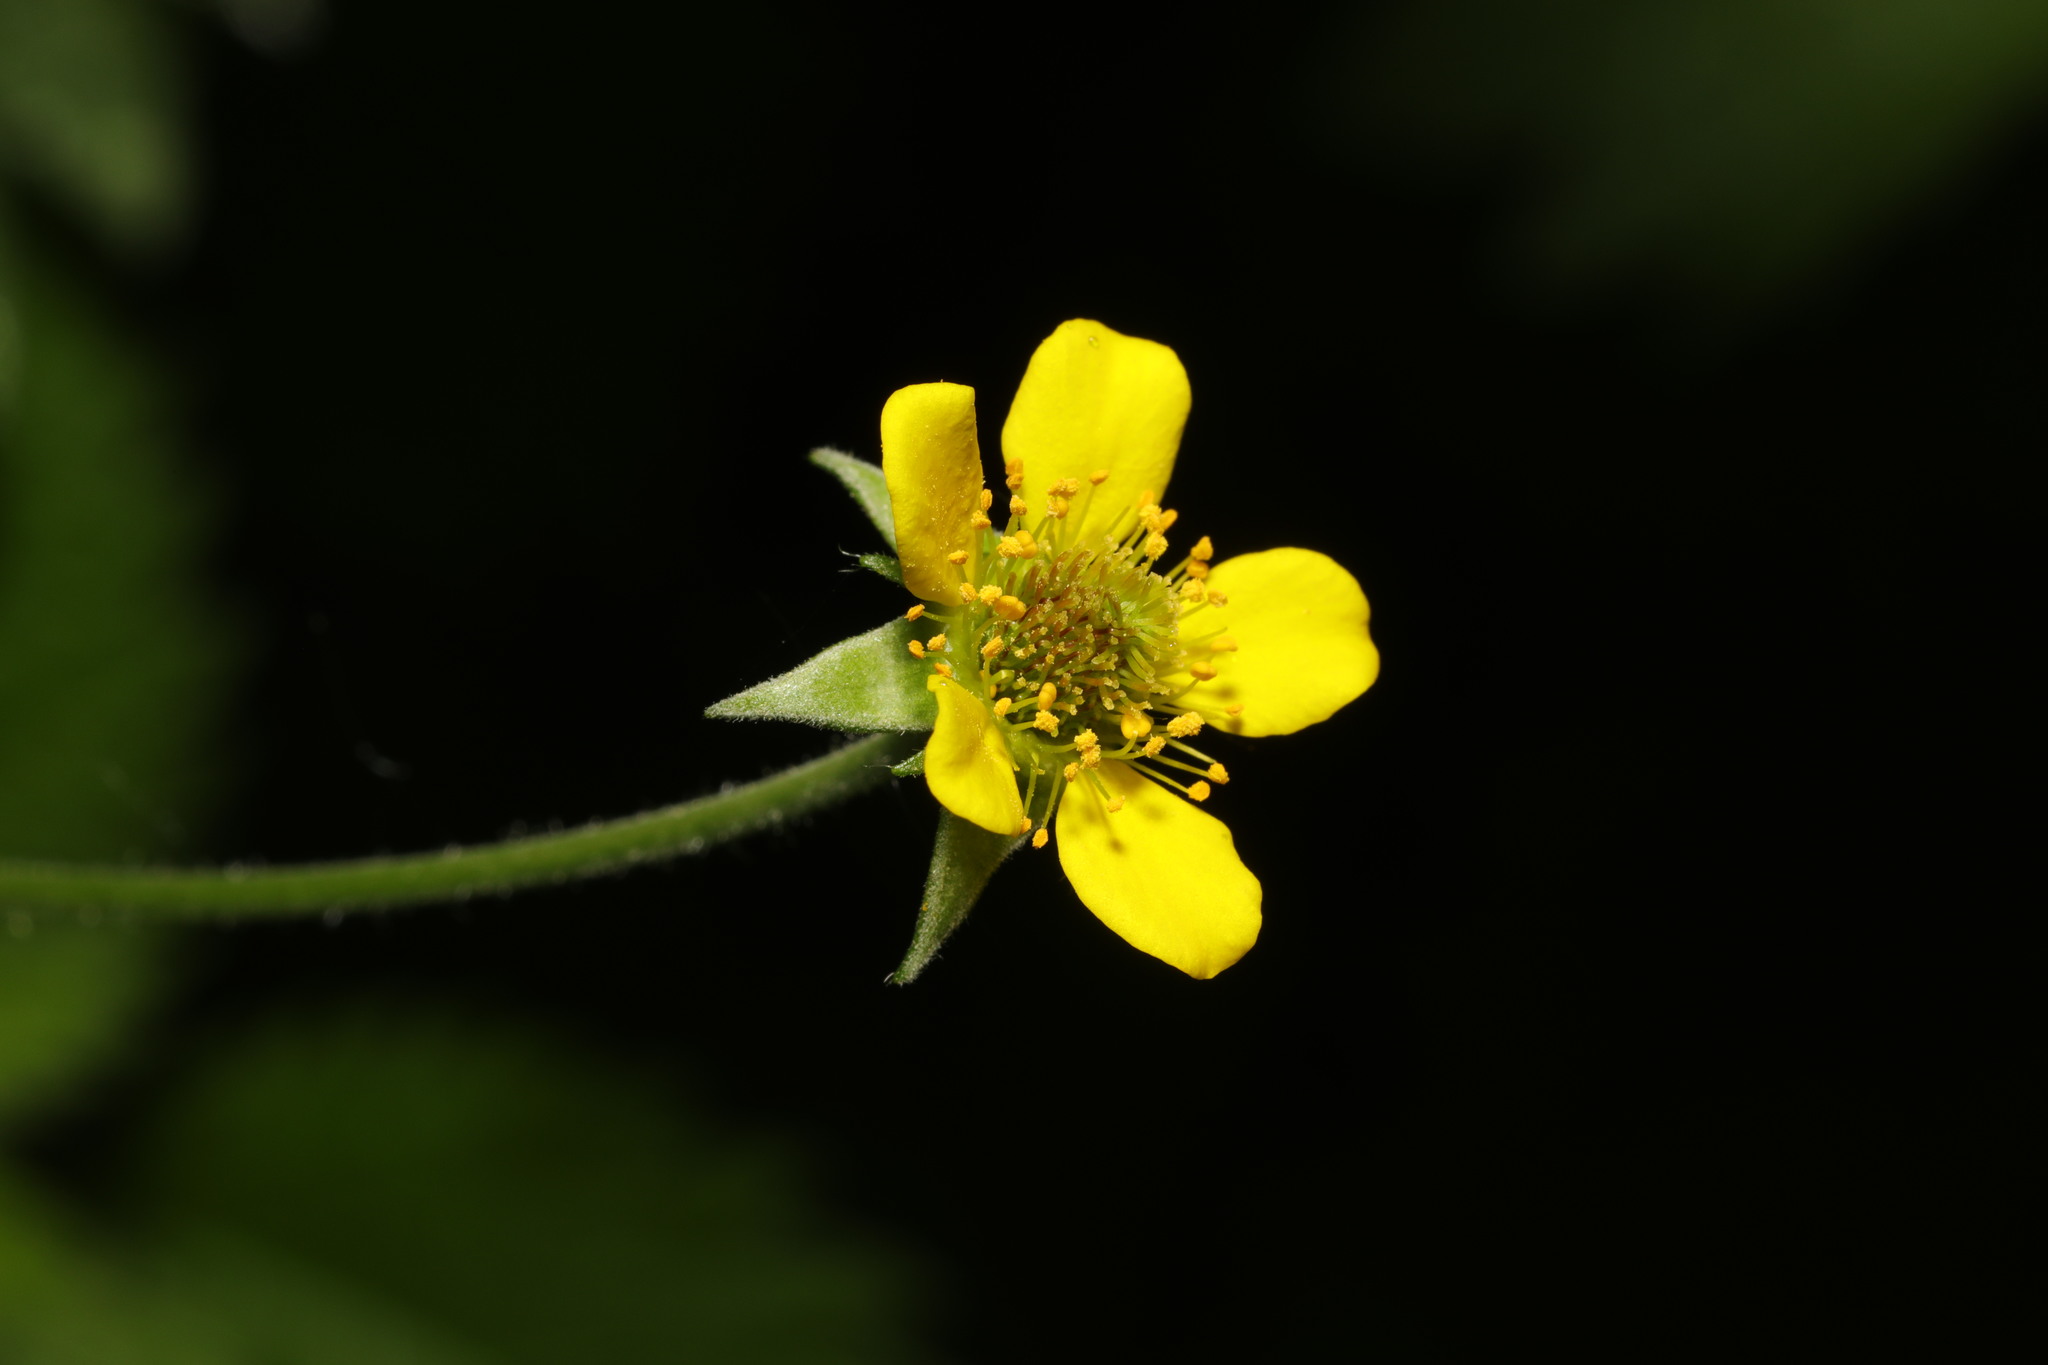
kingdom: Plantae
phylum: Tracheophyta
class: Magnoliopsida
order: Rosales
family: Rosaceae
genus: Geum
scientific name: Geum urbanum
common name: Wood avens
